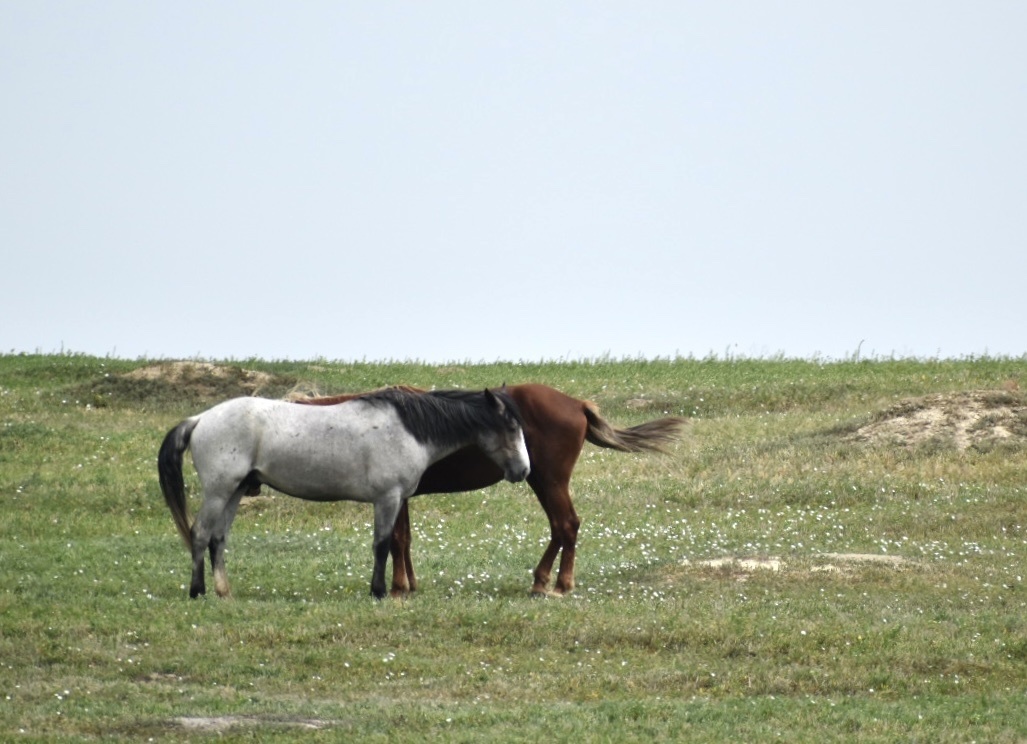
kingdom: Animalia
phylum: Chordata
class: Mammalia
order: Perissodactyla
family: Equidae
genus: Equus
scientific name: Equus caballus
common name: Horse
